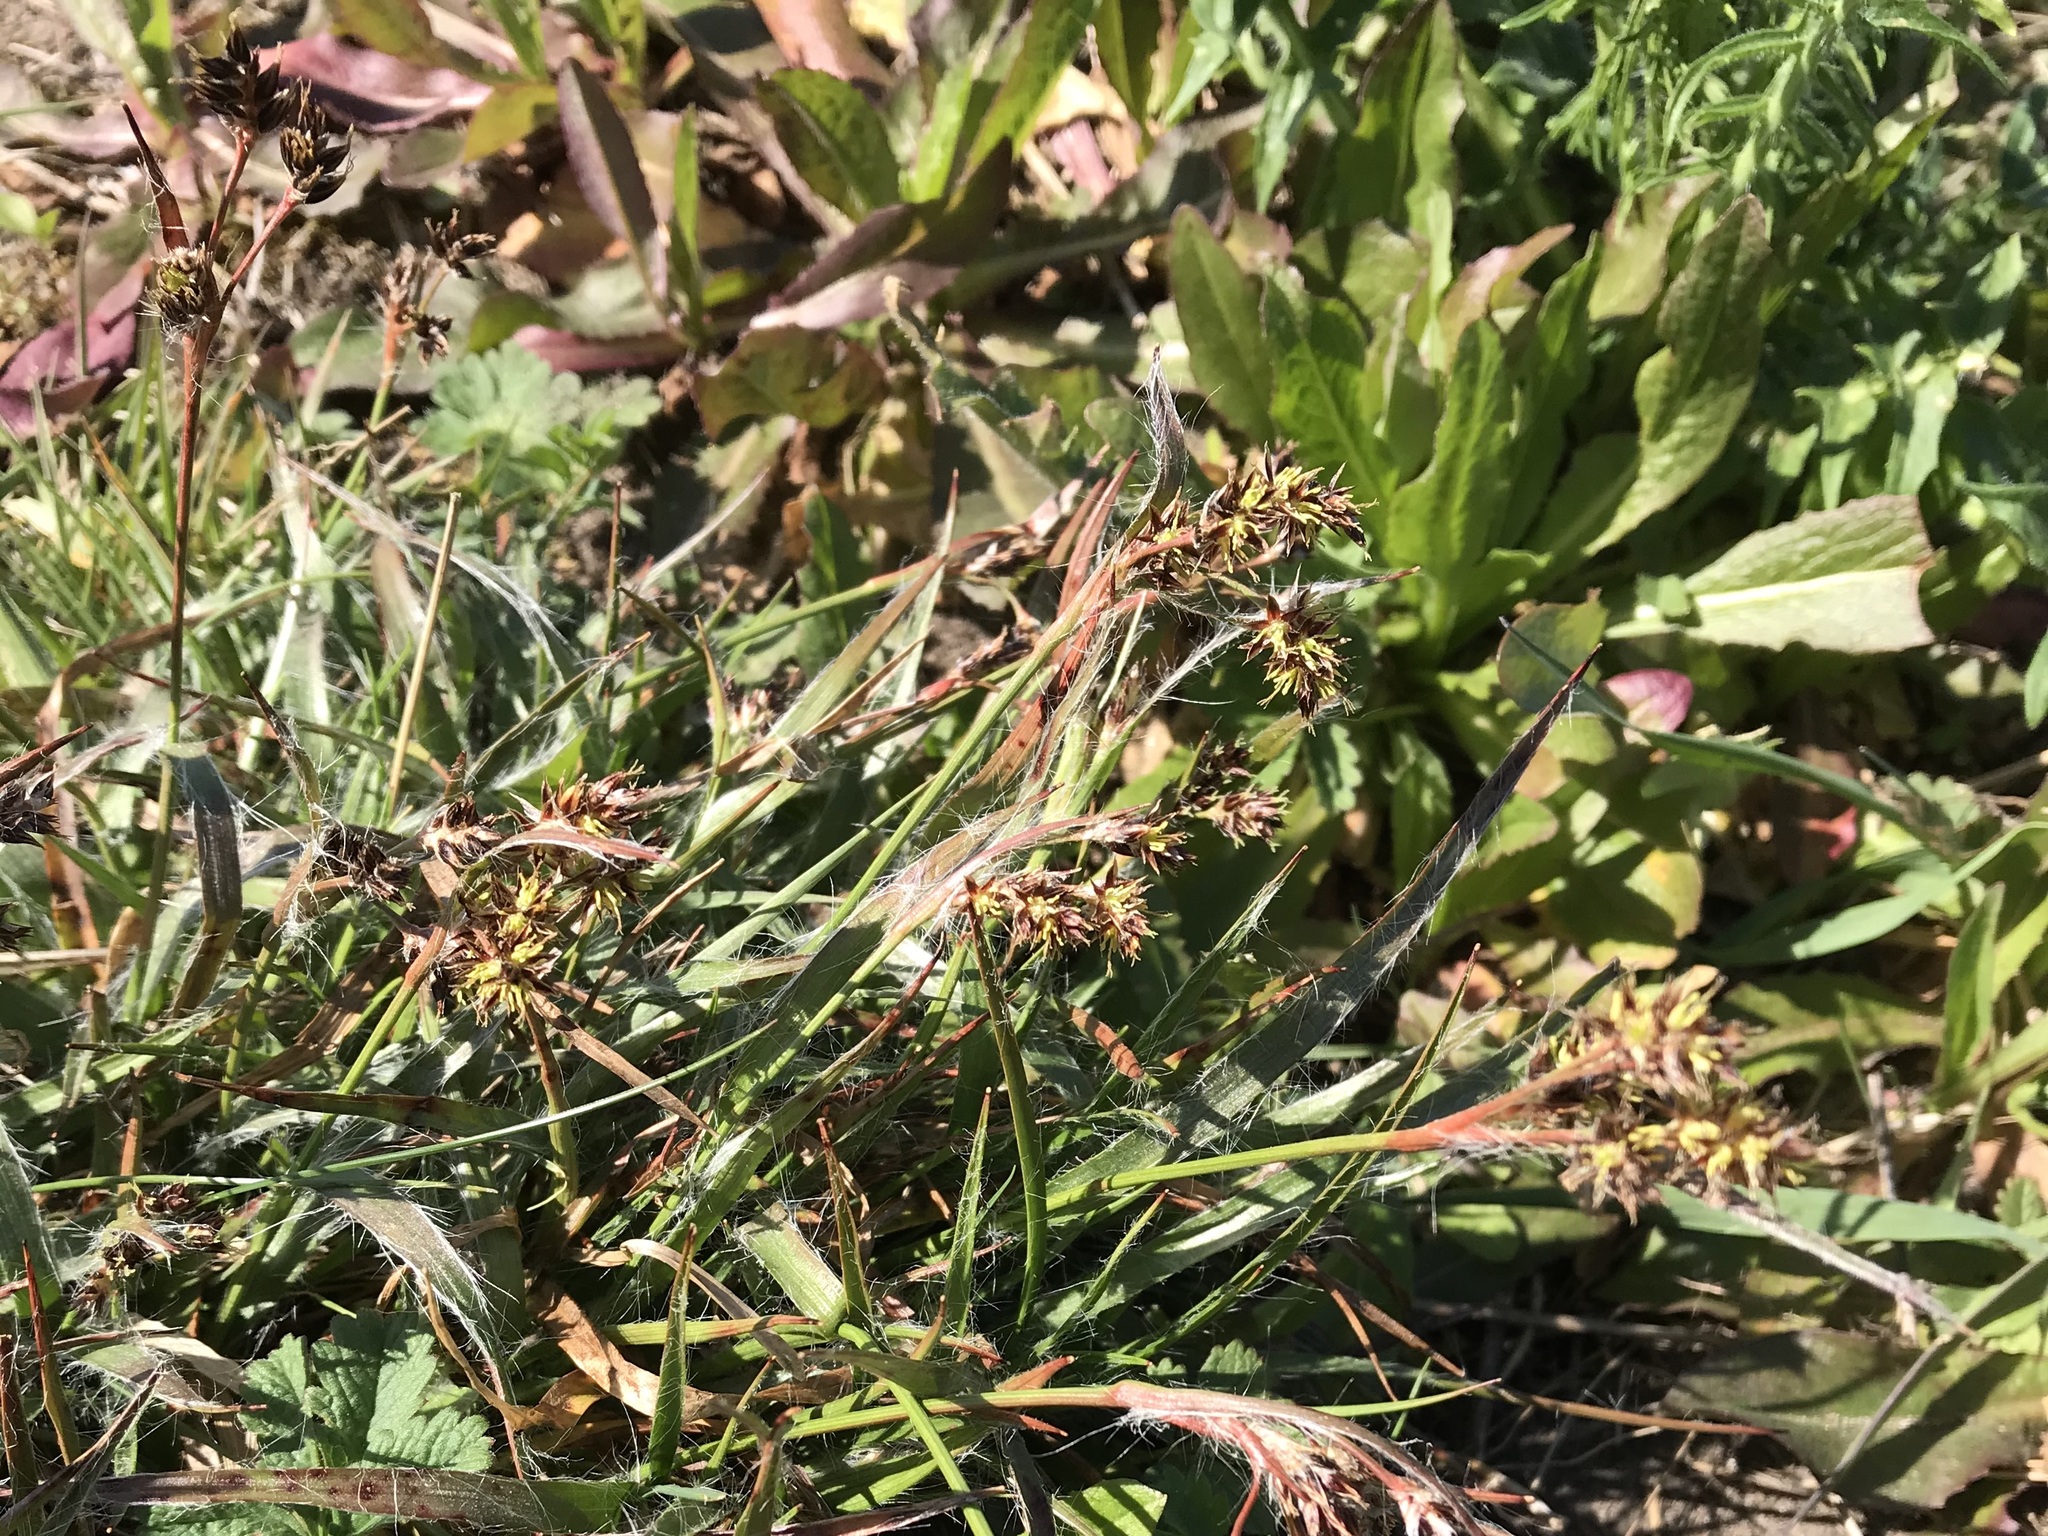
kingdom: Plantae
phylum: Tracheophyta
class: Liliopsida
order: Poales
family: Juncaceae
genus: Luzula
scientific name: Luzula campestris
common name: Field wood-rush
